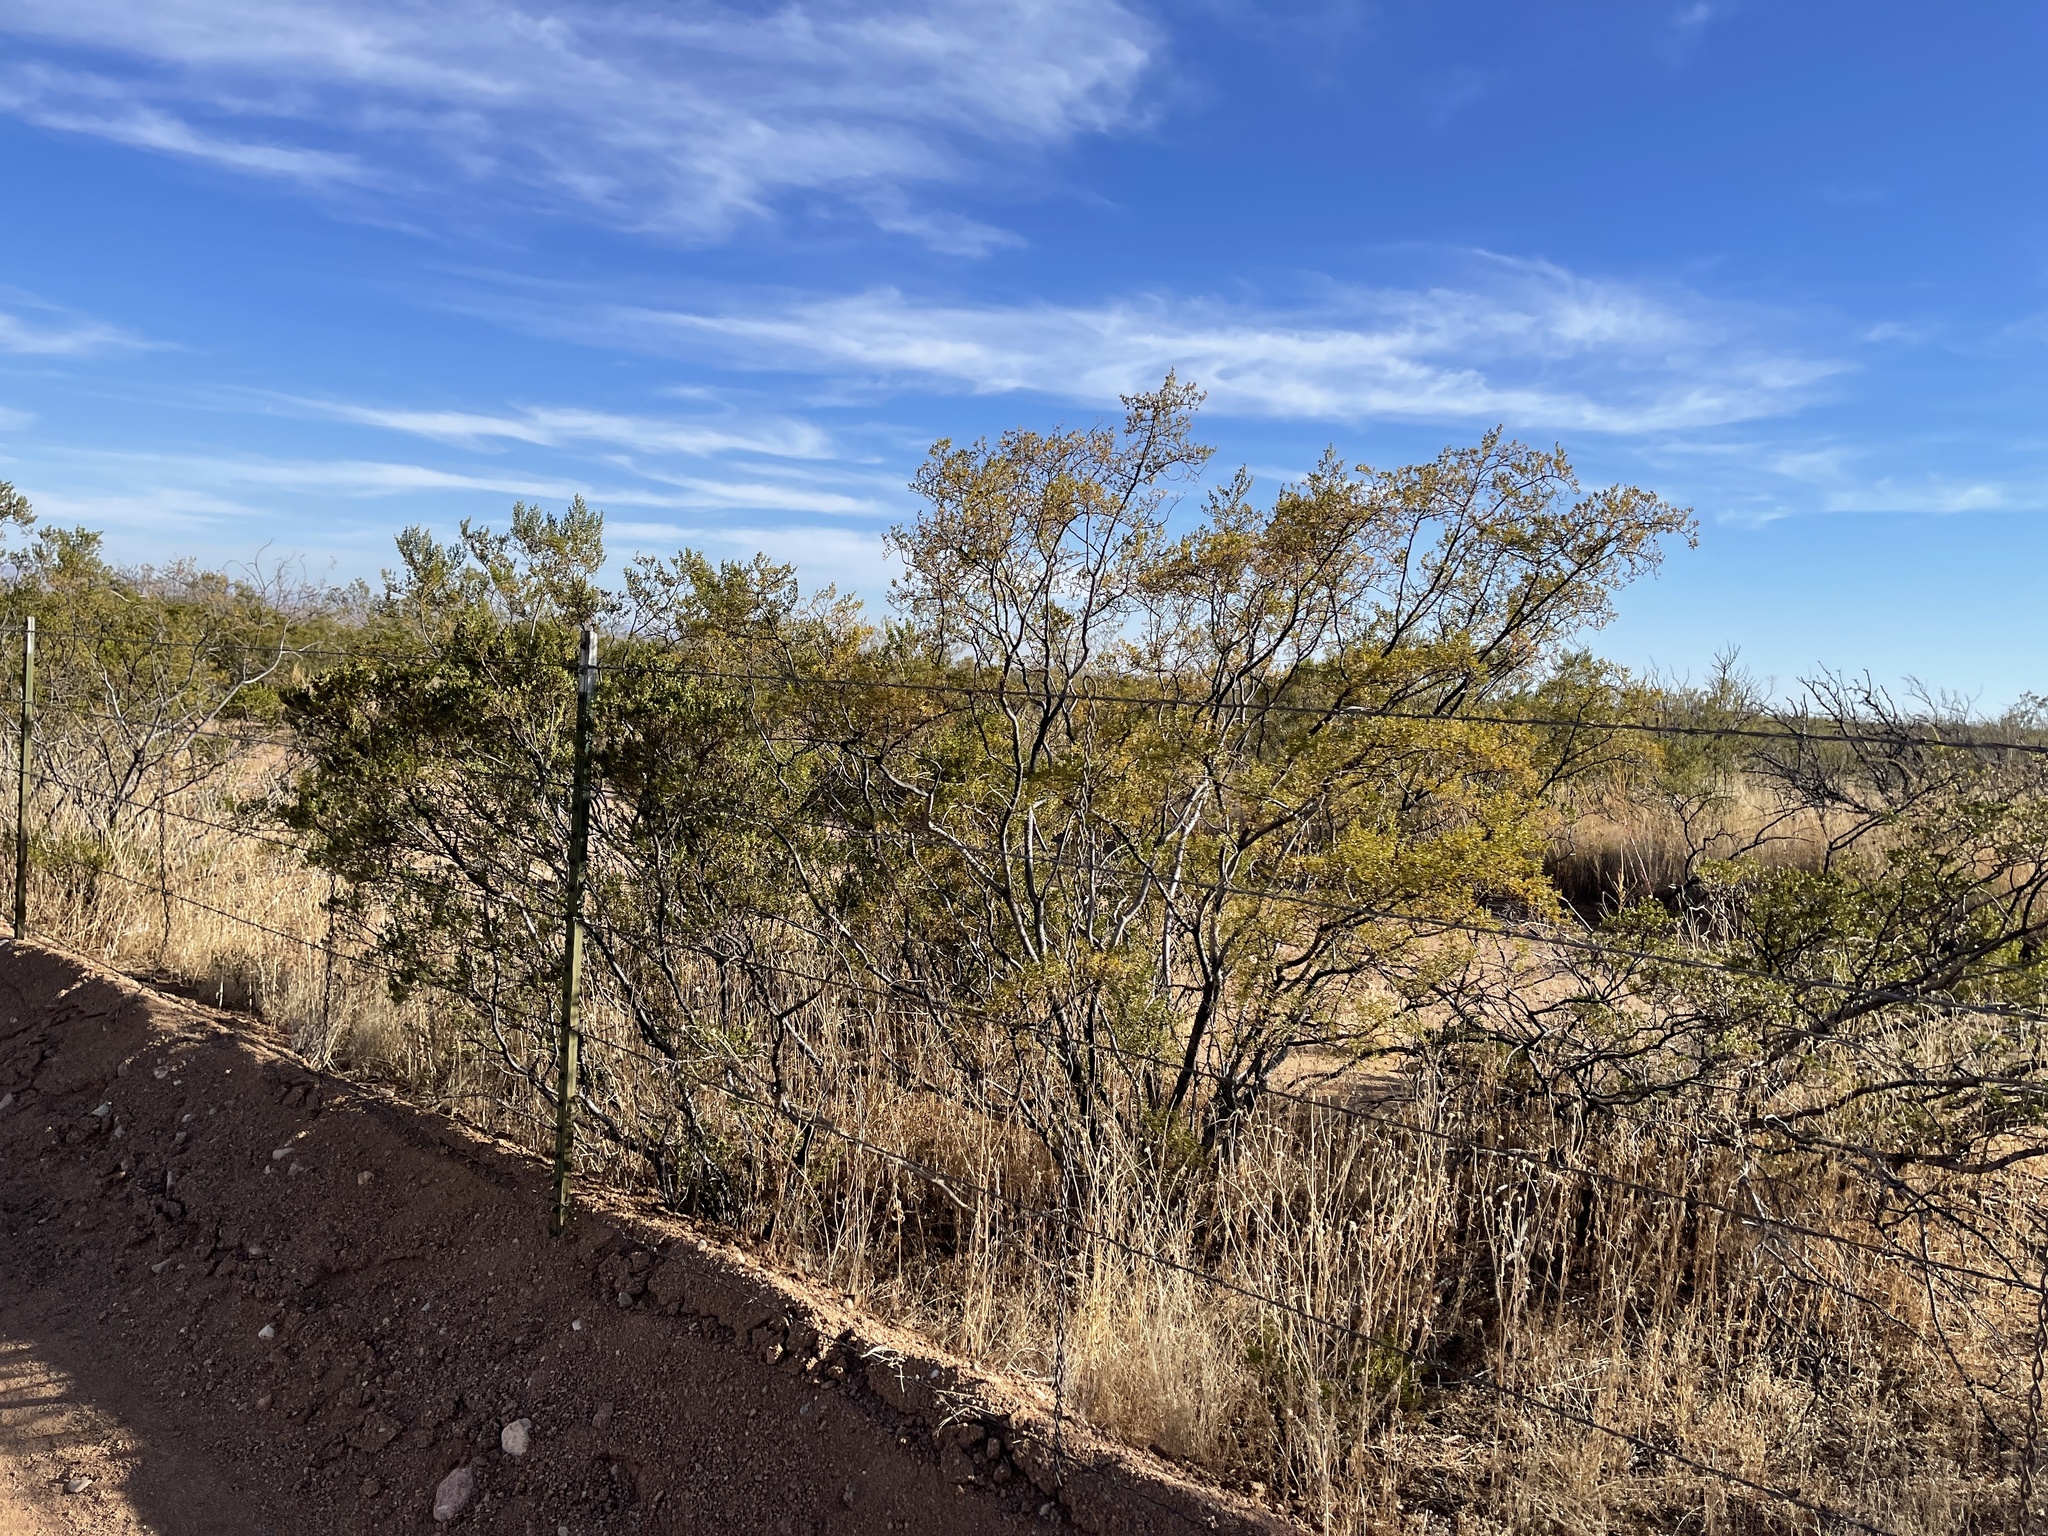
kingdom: Plantae
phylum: Tracheophyta
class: Magnoliopsida
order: Zygophyllales
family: Zygophyllaceae
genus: Larrea
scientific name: Larrea tridentata
